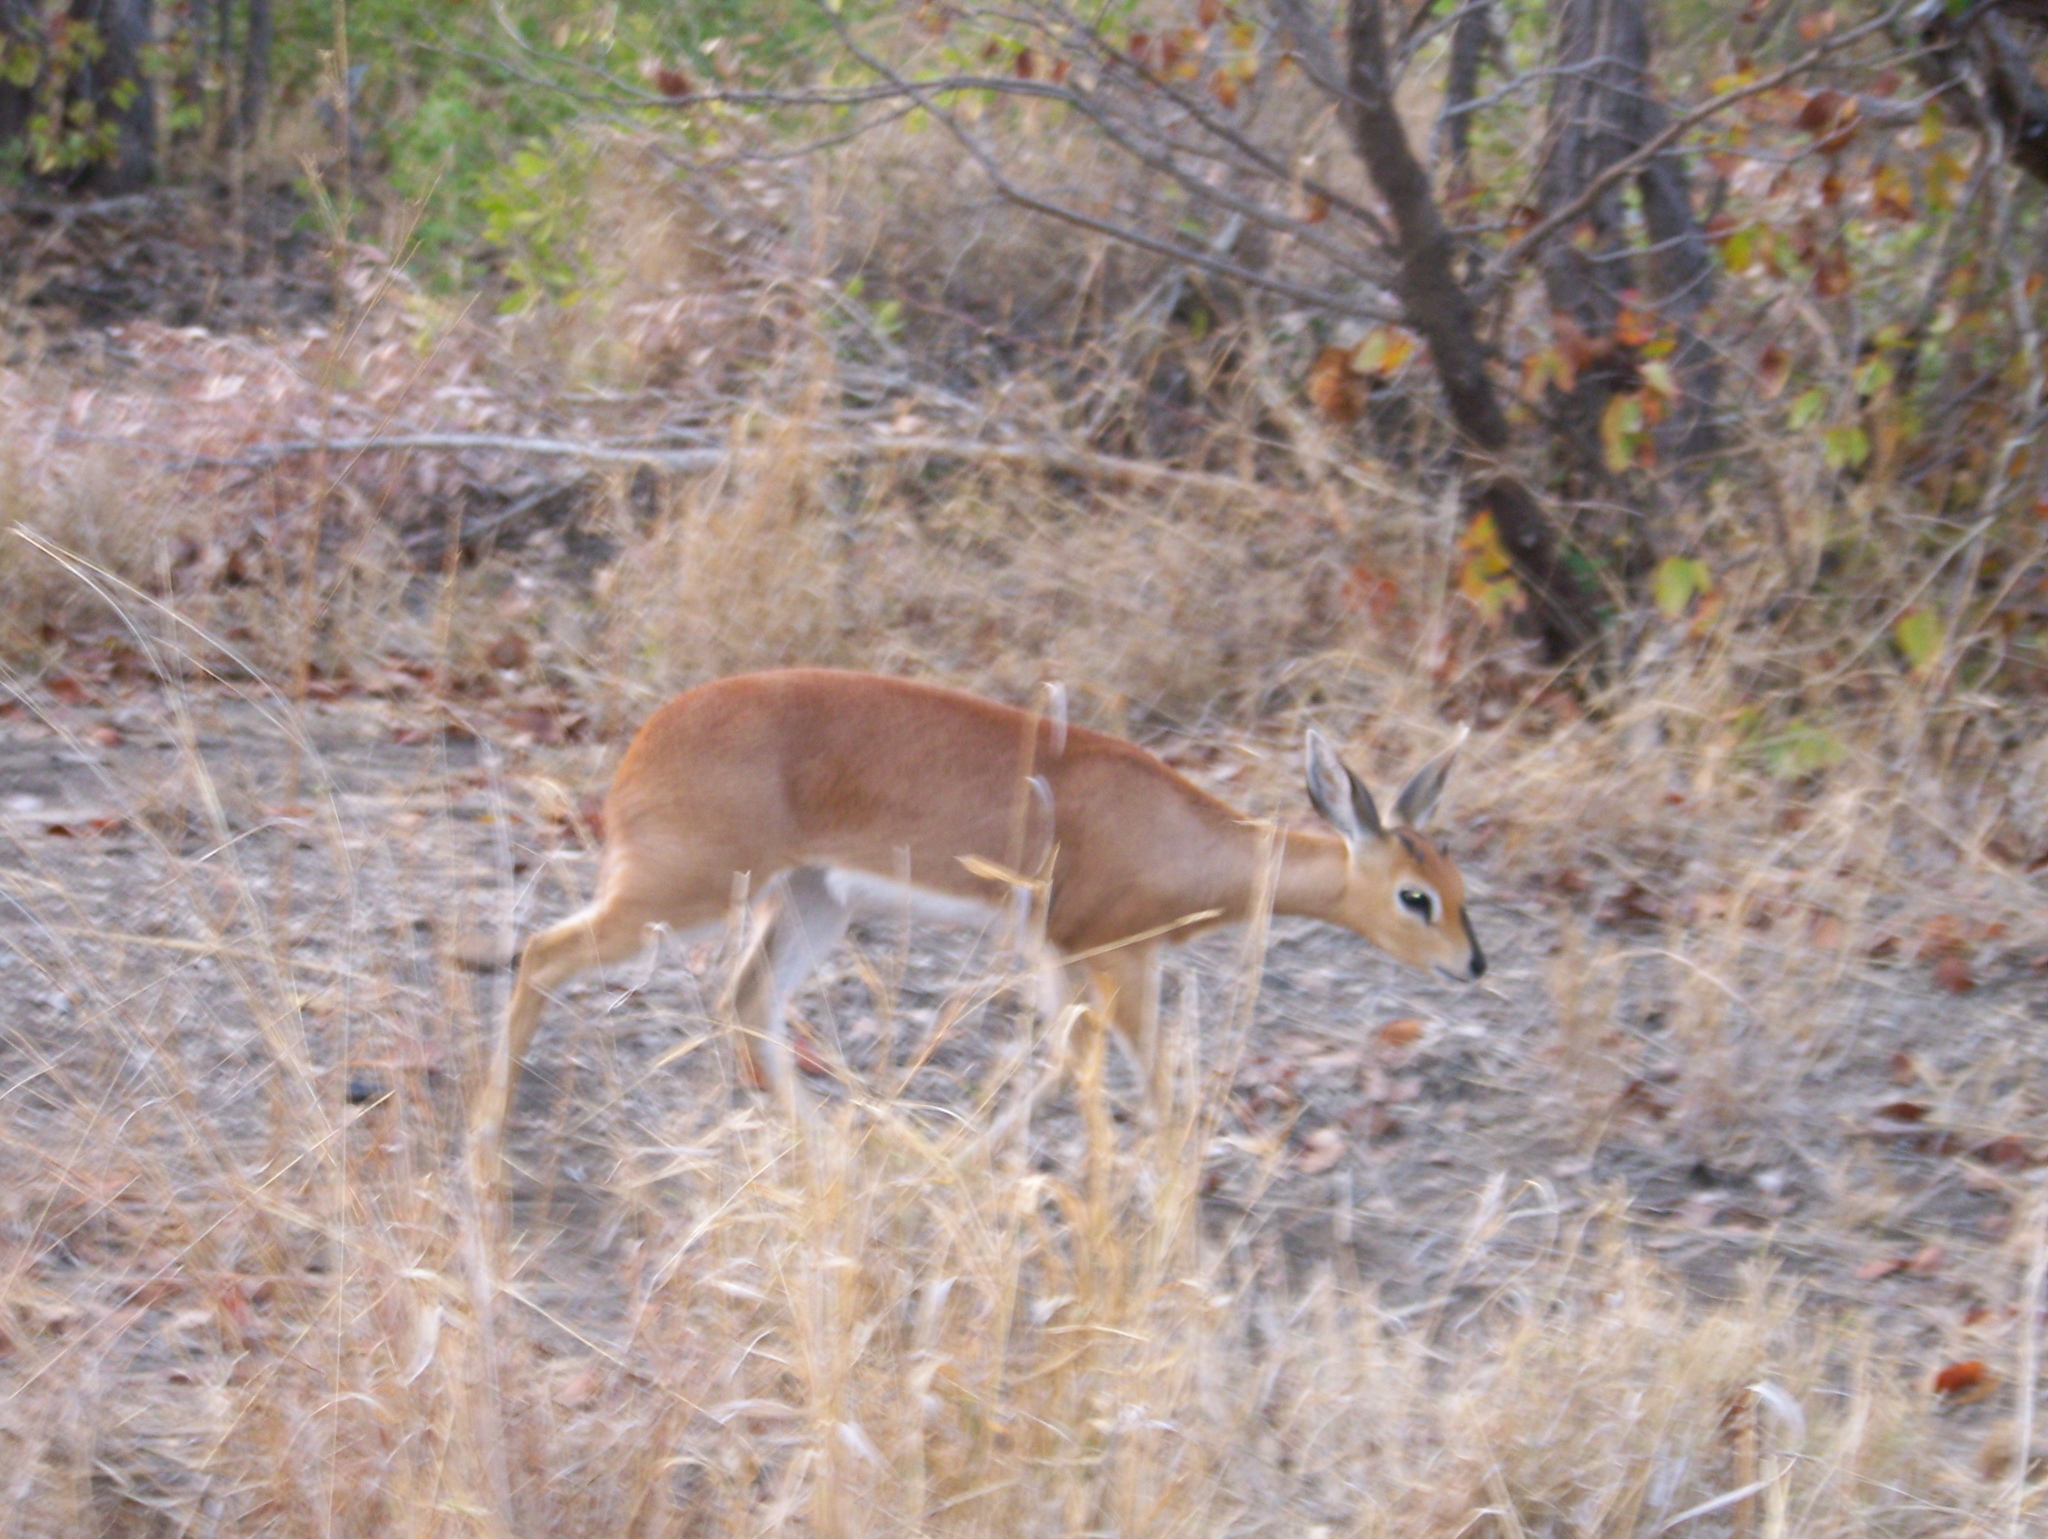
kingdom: Animalia
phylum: Chordata
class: Mammalia
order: Artiodactyla
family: Bovidae
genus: Raphicerus
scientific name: Raphicerus campestris
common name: Steenbok
